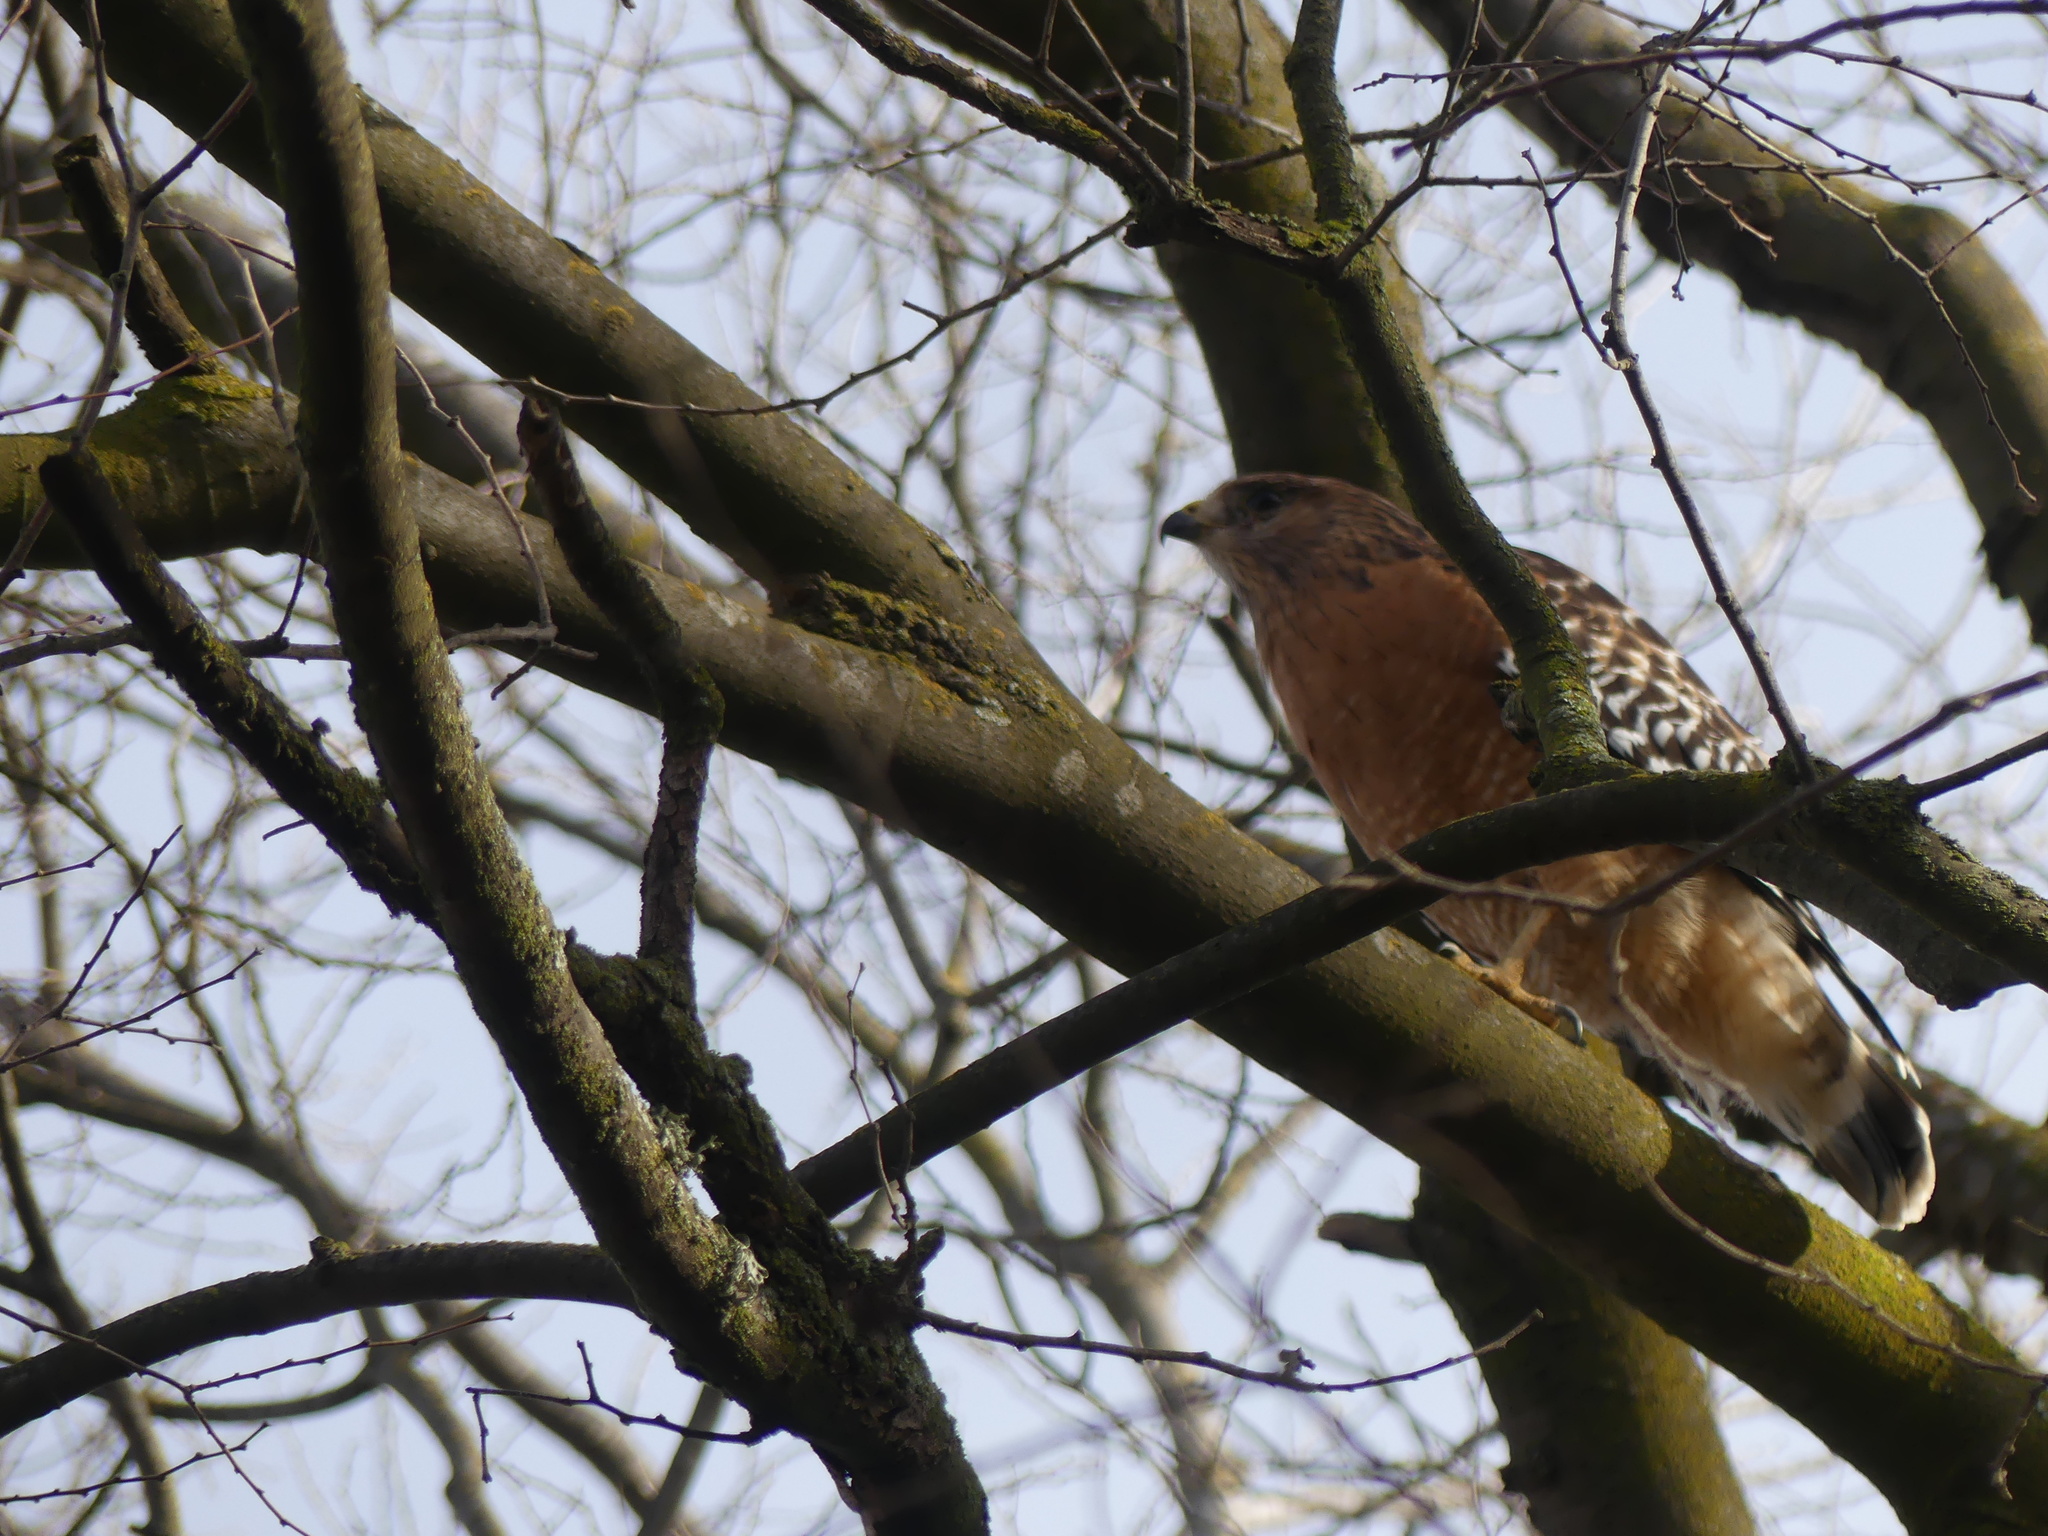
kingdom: Animalia
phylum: Chordata
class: Aves
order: Accipitriformes
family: Accipitridae
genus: Buteo
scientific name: Buteo lineatus
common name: Red-shouldered hawk
